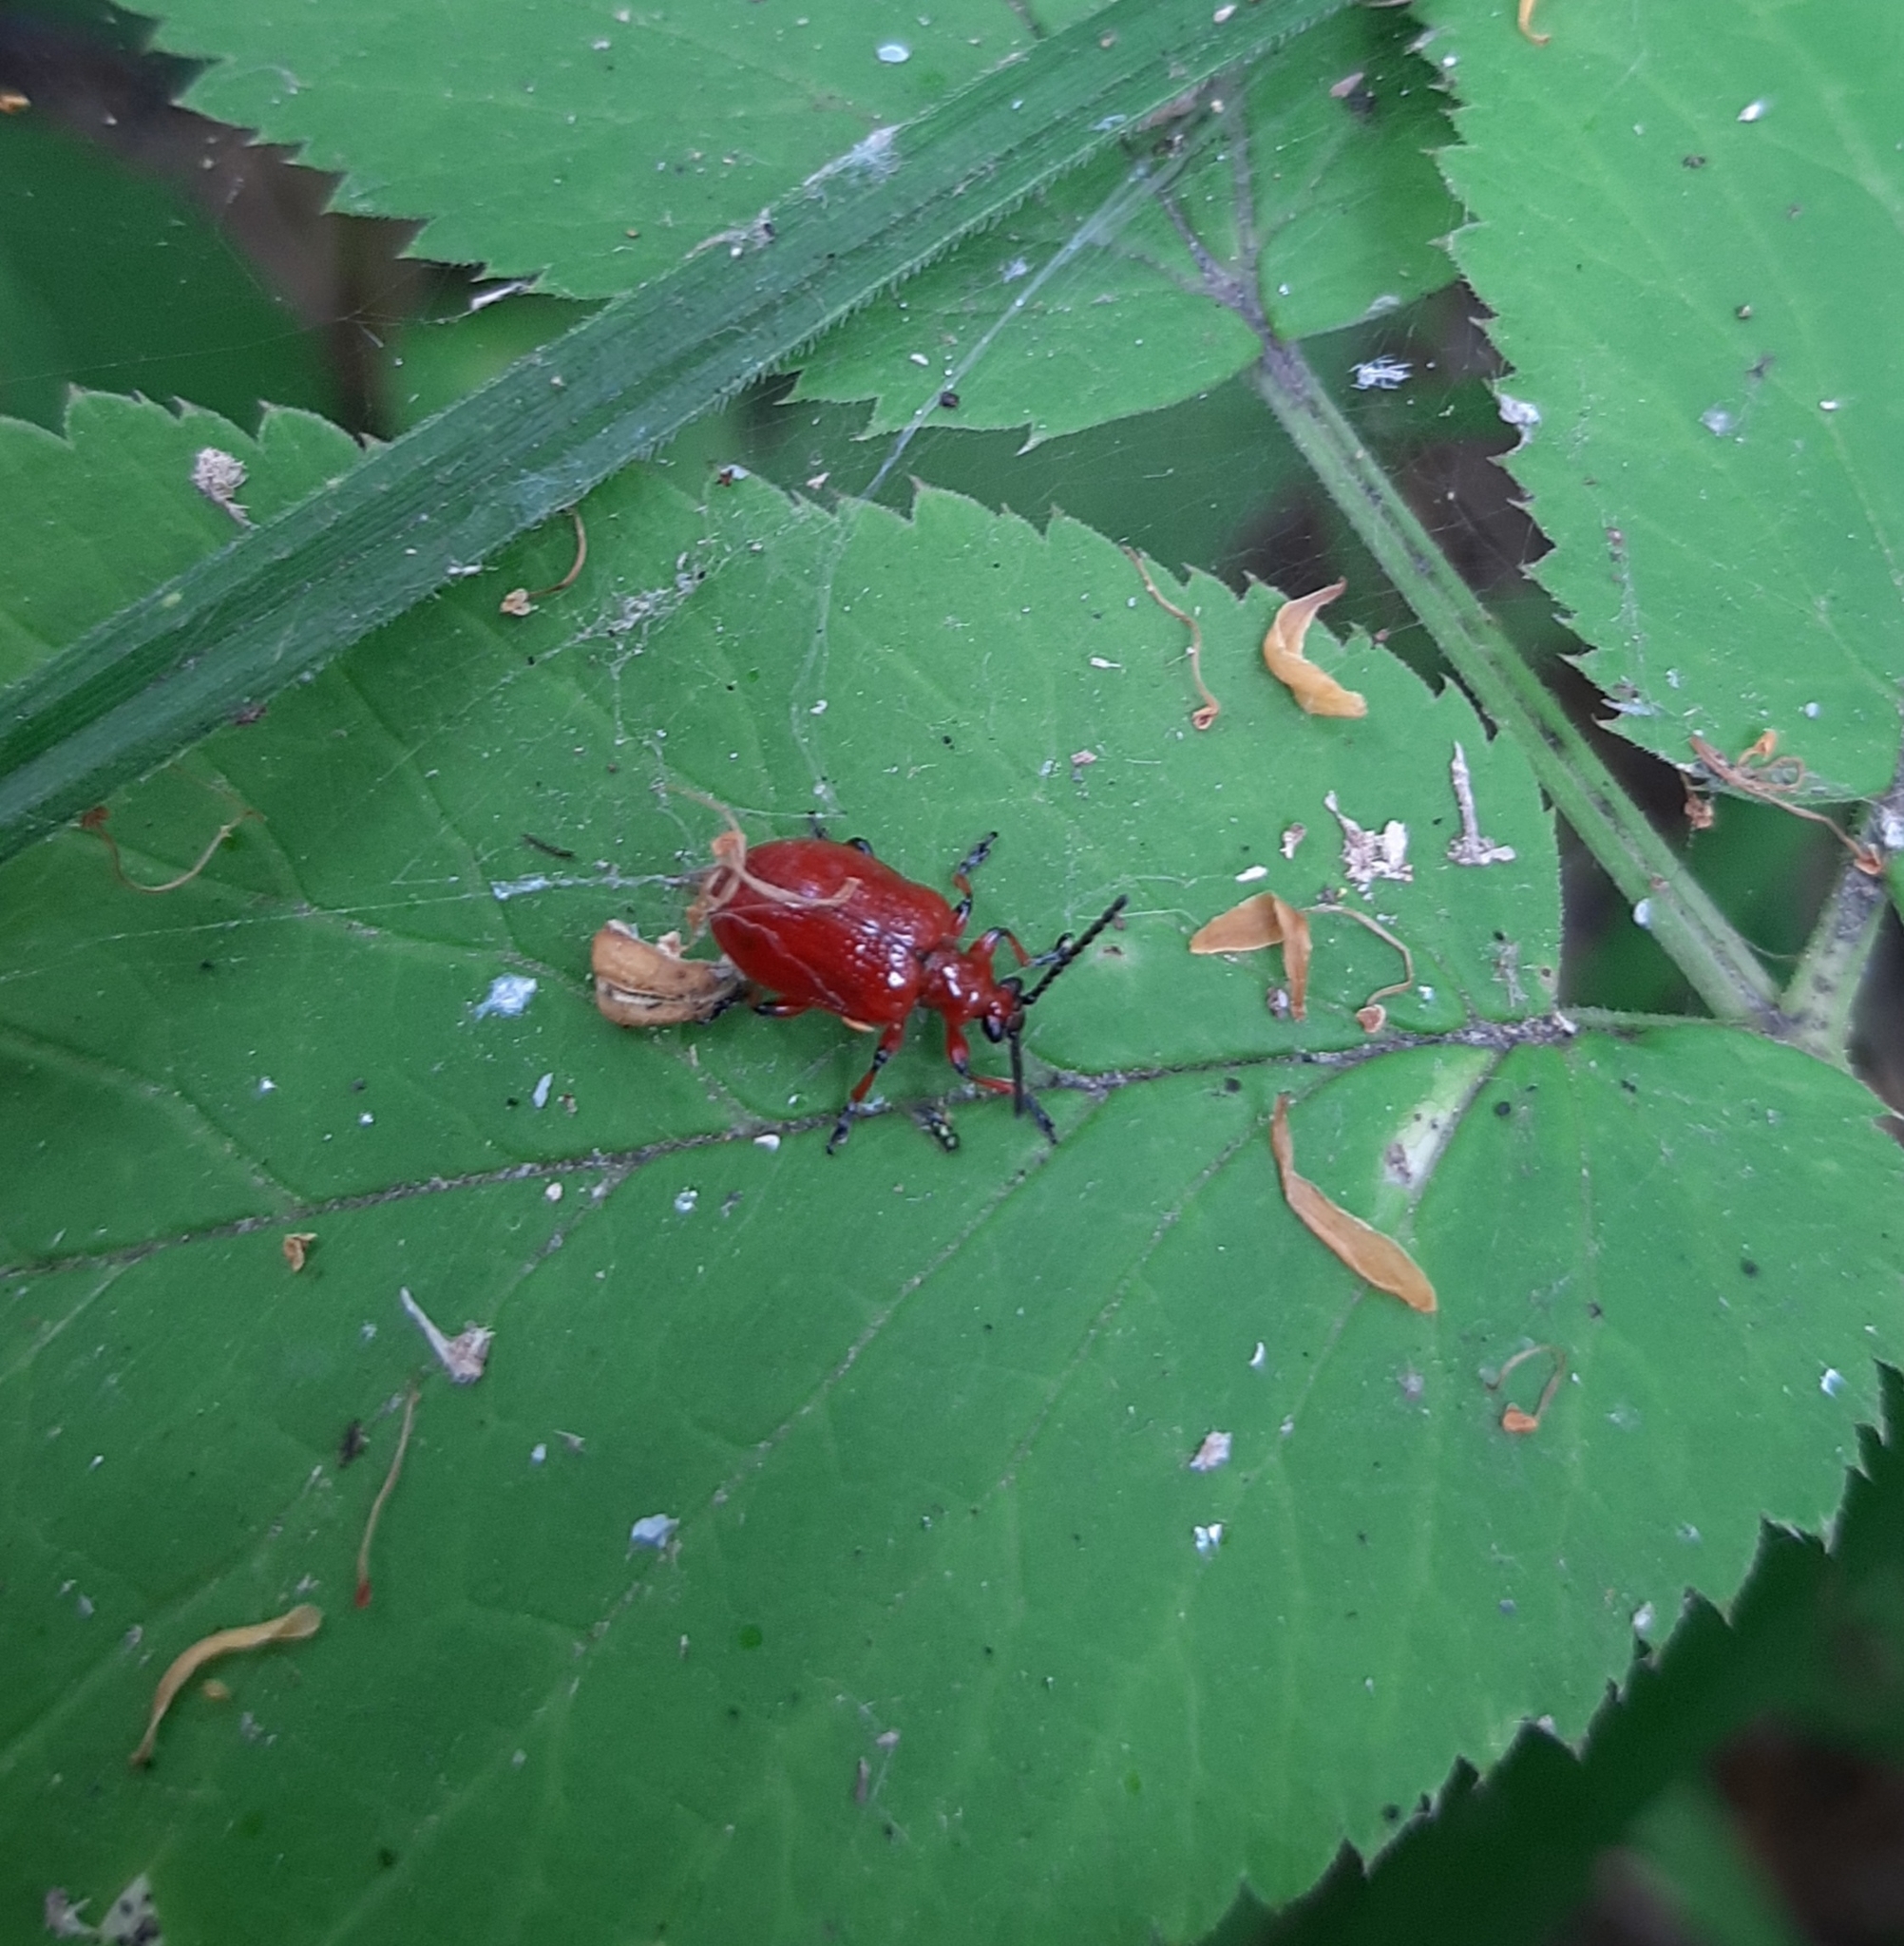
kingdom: Animalia
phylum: Arthropoda
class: Insecta
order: Coleoptera
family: Chrysomelidae
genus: Lilioceris
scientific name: Lilioceris merdigera
